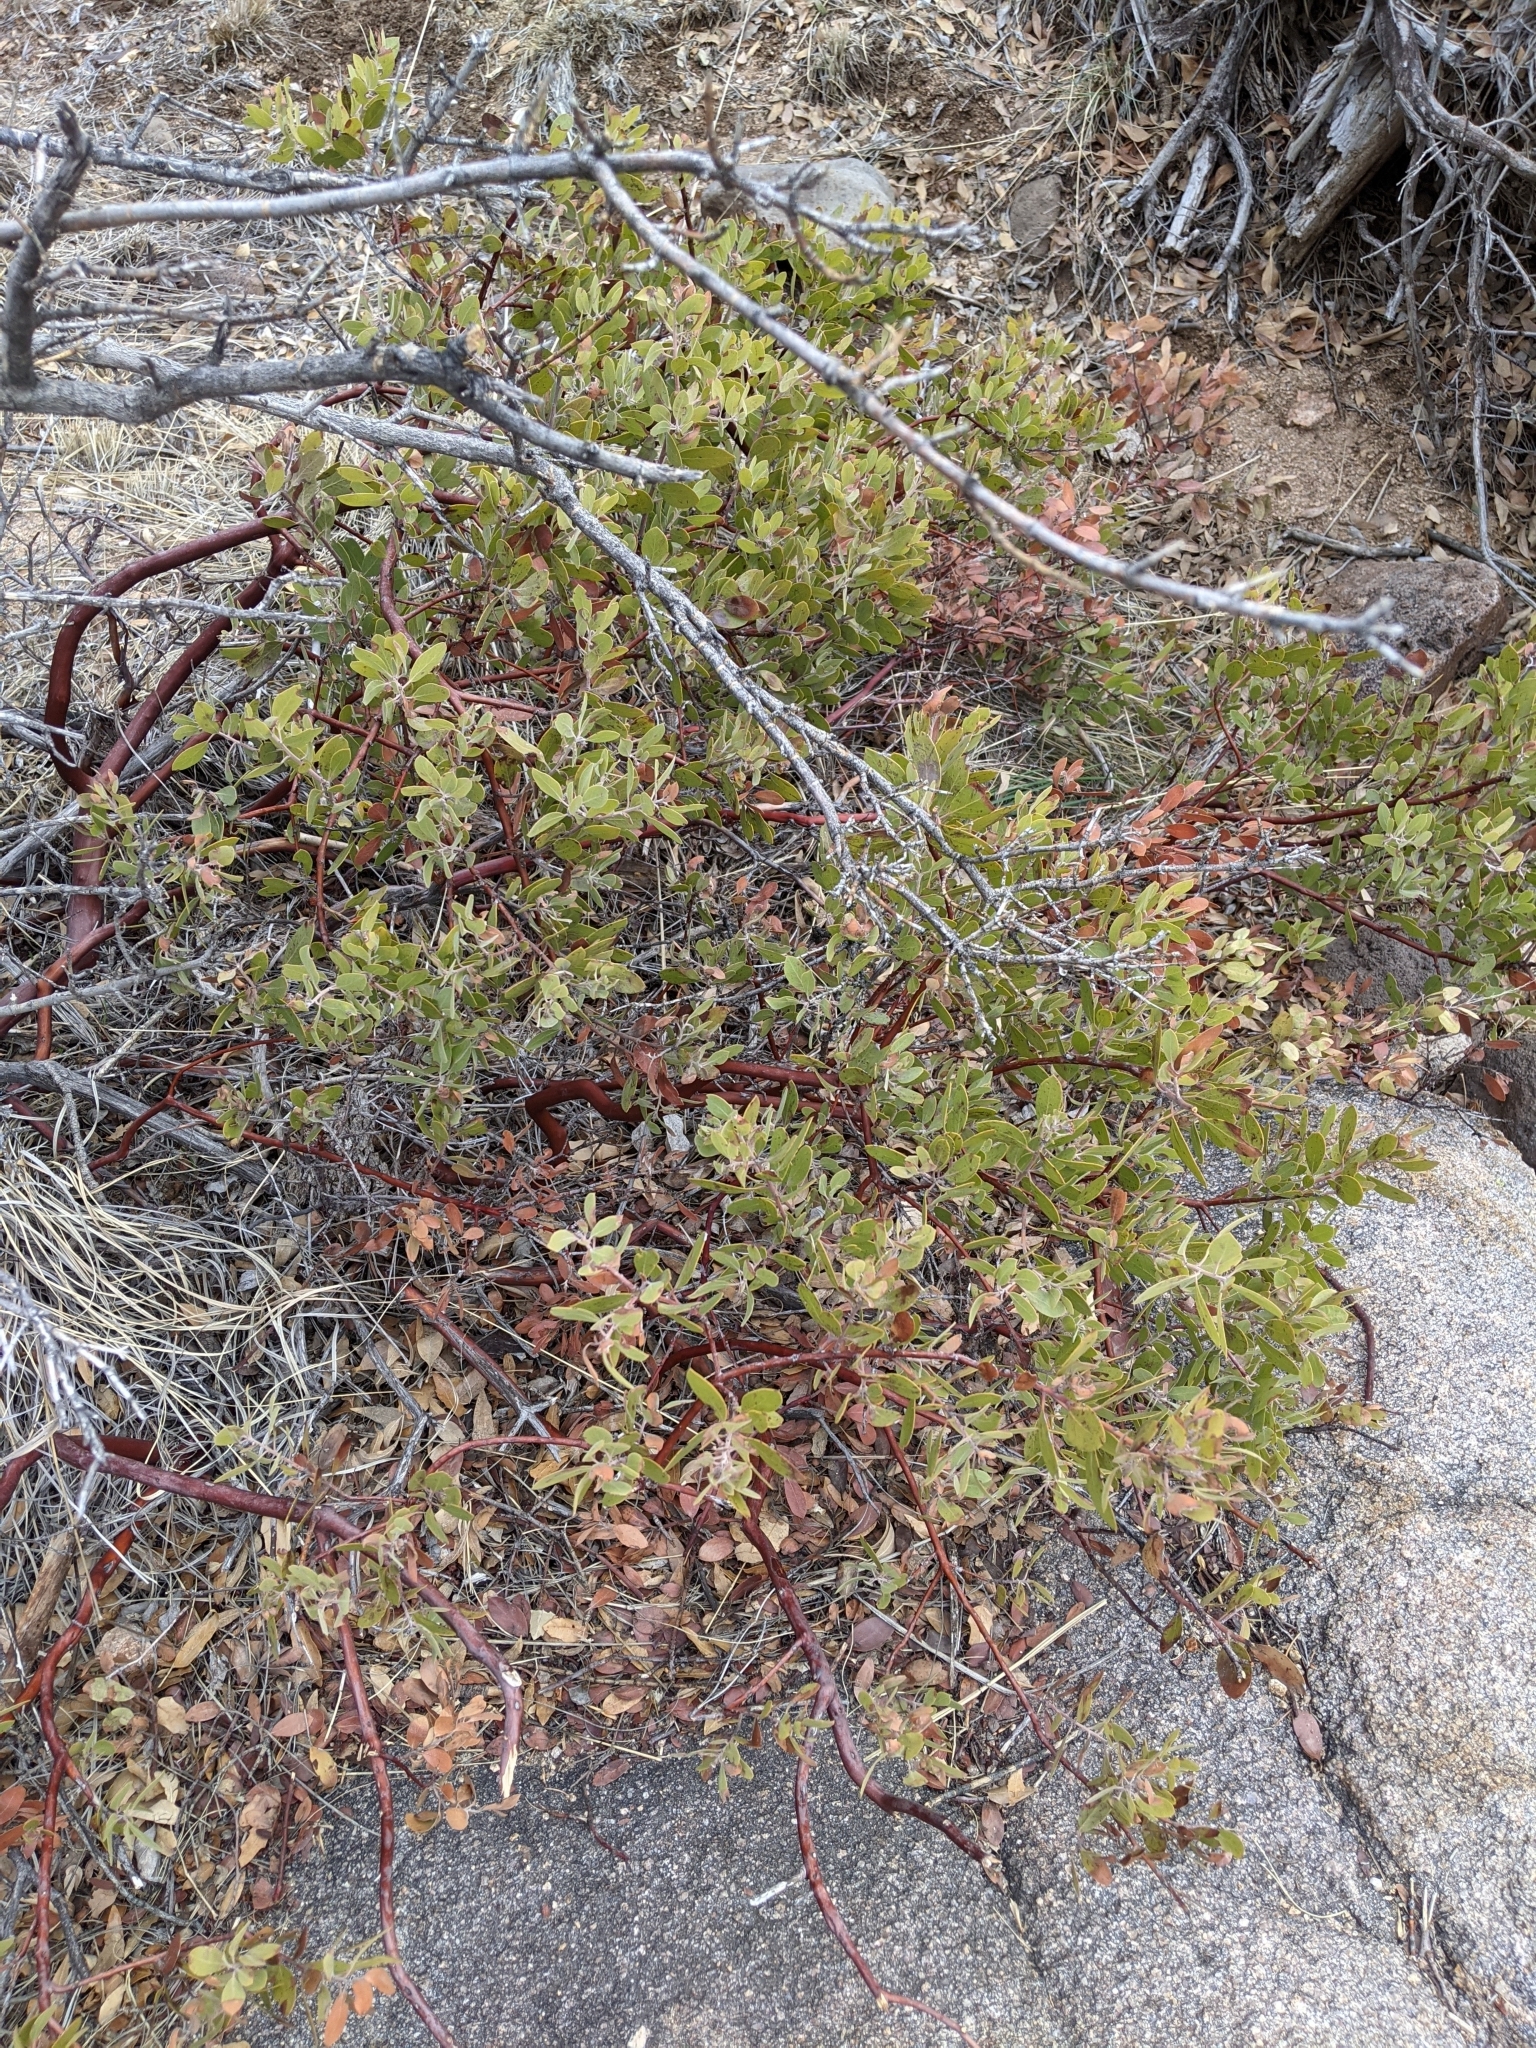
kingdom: Plantae
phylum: Tracheophyta
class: Magnoliopsida
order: Ericales
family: Ericaceae
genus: Arctostaphylos
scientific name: Arctostaphylos pungens
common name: Mexican manzanita
